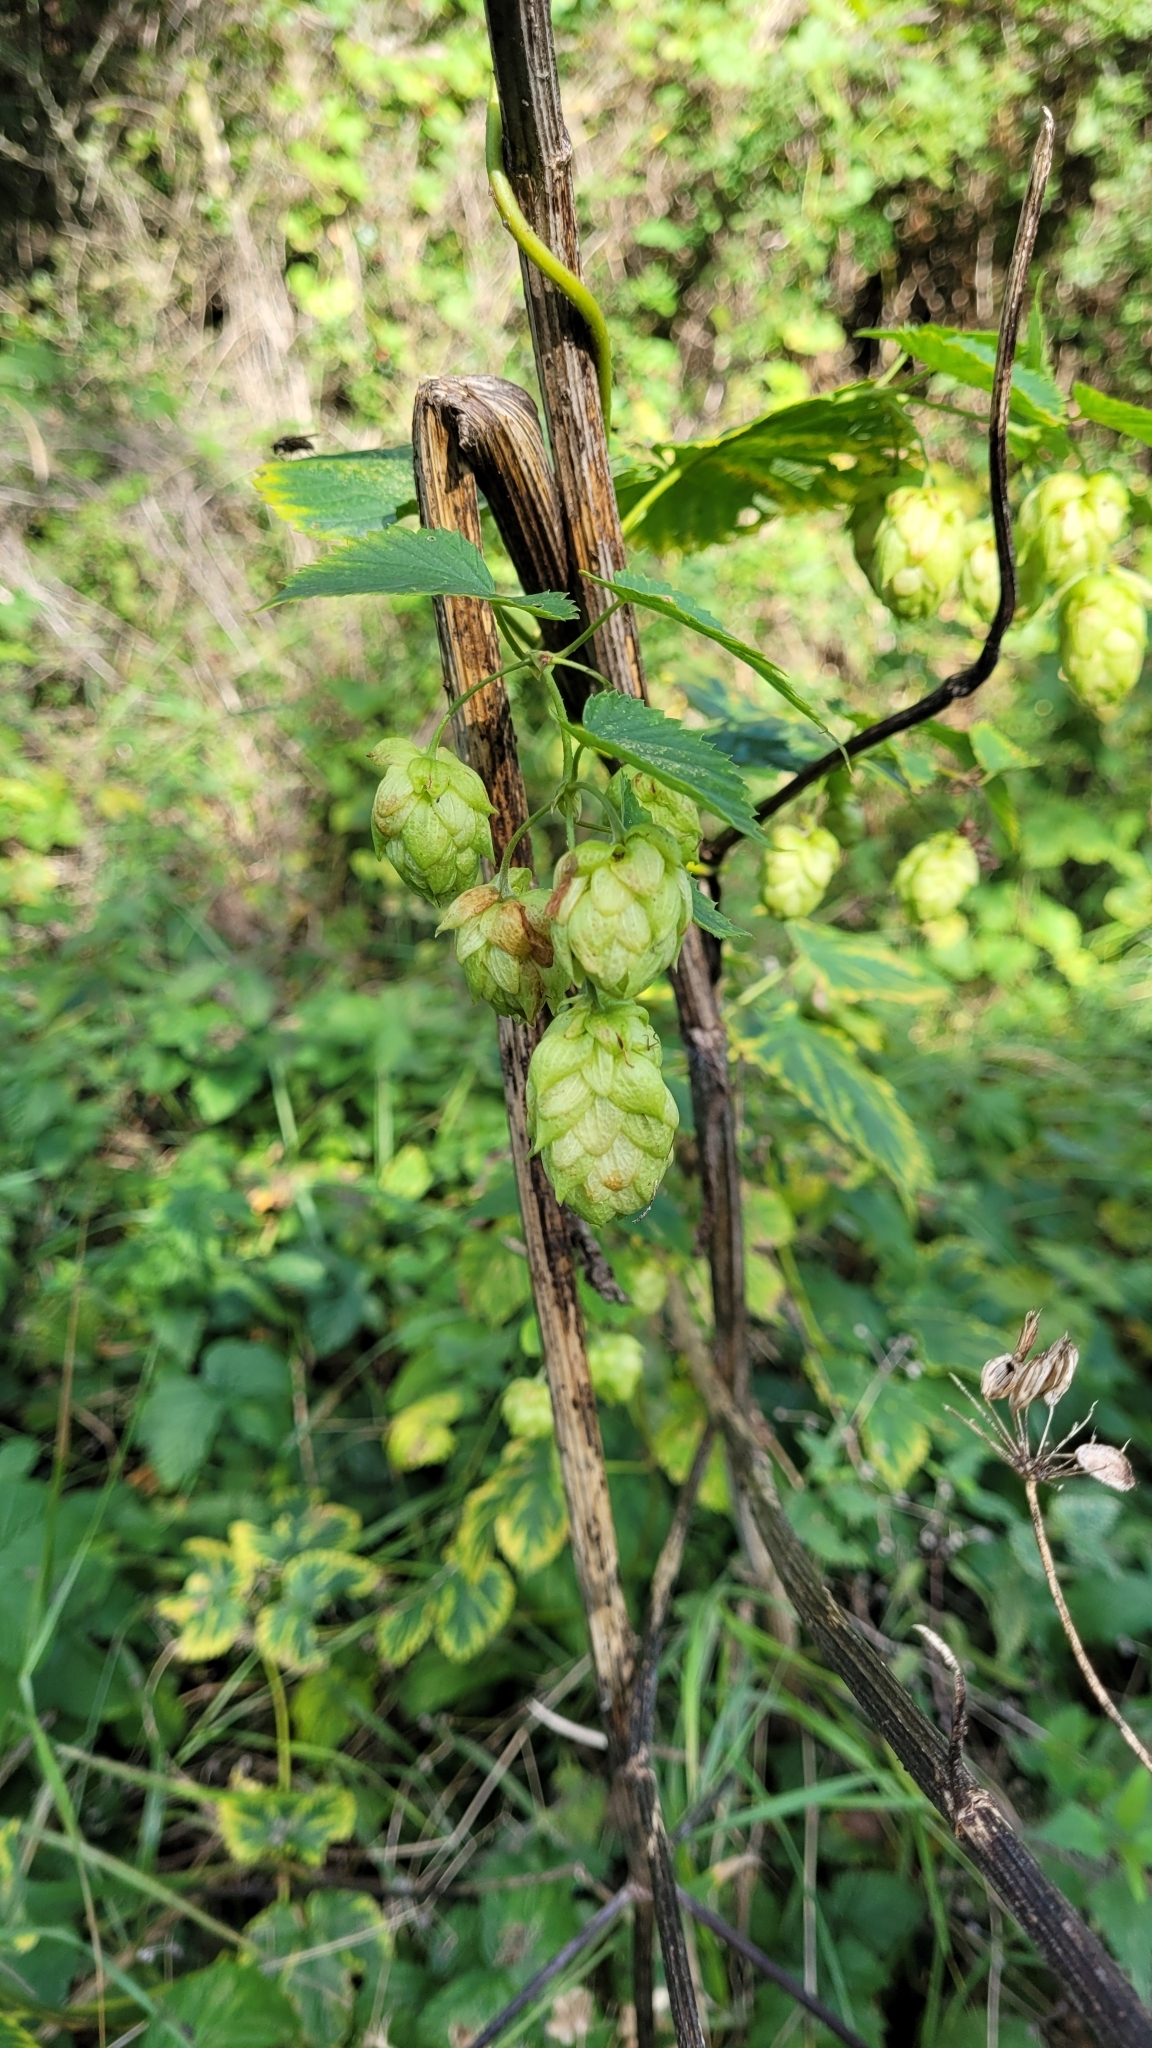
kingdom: Plantae
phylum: Tracheophyta
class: Magnoliopsida
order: Rosales
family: Cannabaceae
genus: Humulus
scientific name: Humulus lupulus
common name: Hop
